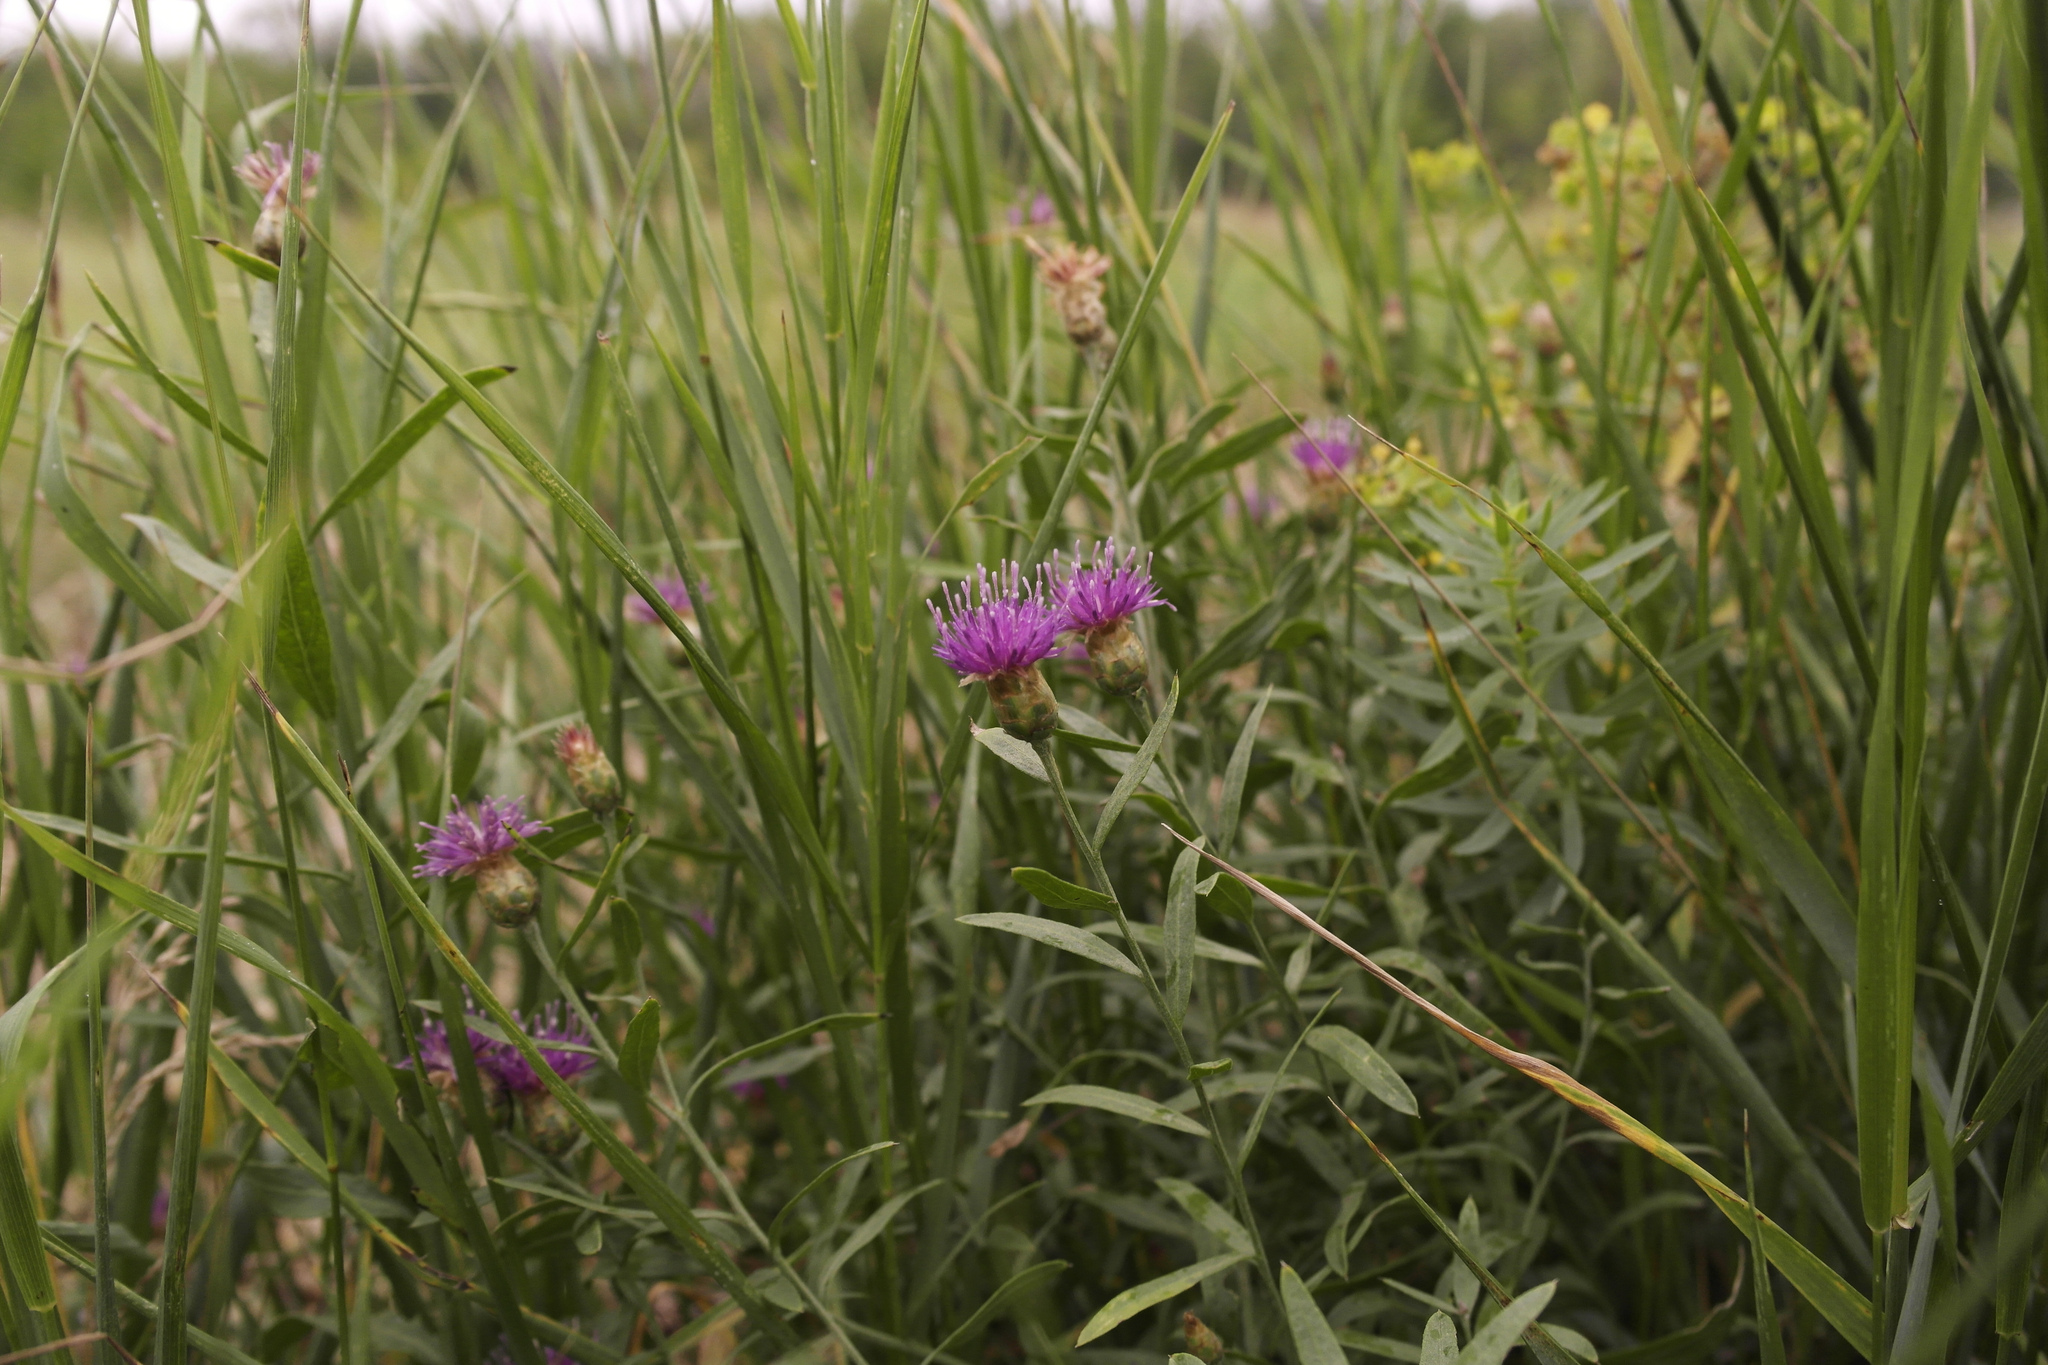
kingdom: Plantae
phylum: Tracheophyta
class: Magnoliopsida
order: Asterales
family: Asteraceae
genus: Leuzea
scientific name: Leuzea repens
